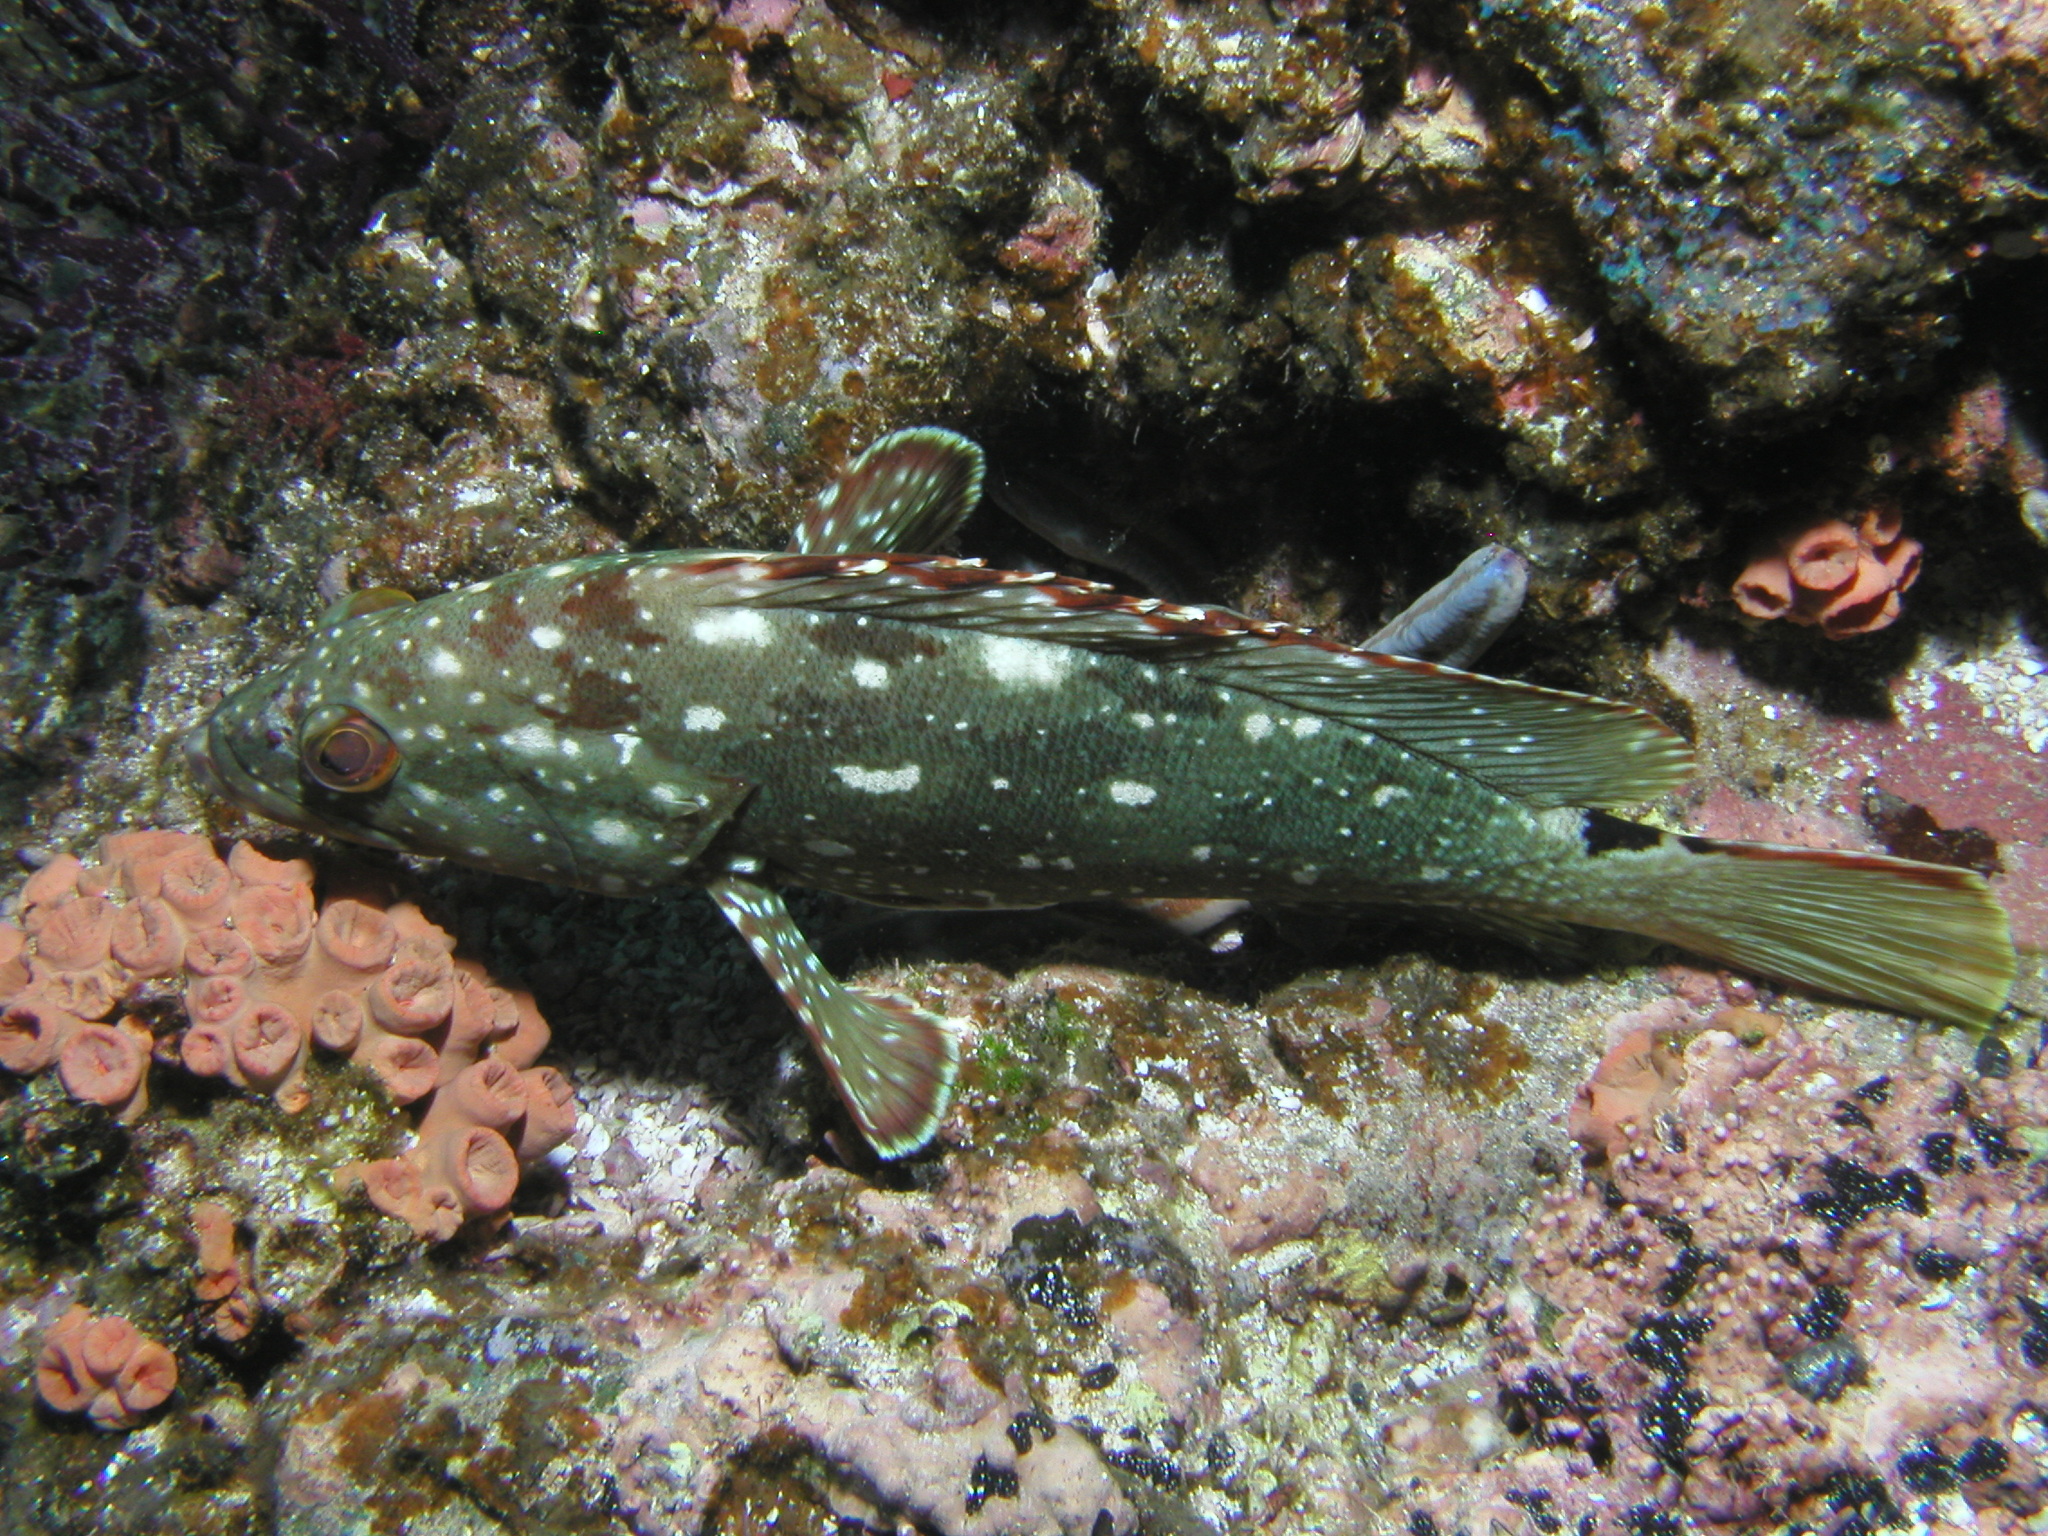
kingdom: Animalia
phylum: Chordata
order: Perciformes
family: Serranidae
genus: Epinephelus
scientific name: Epinephelus labriformis
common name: Flag cabrilla
